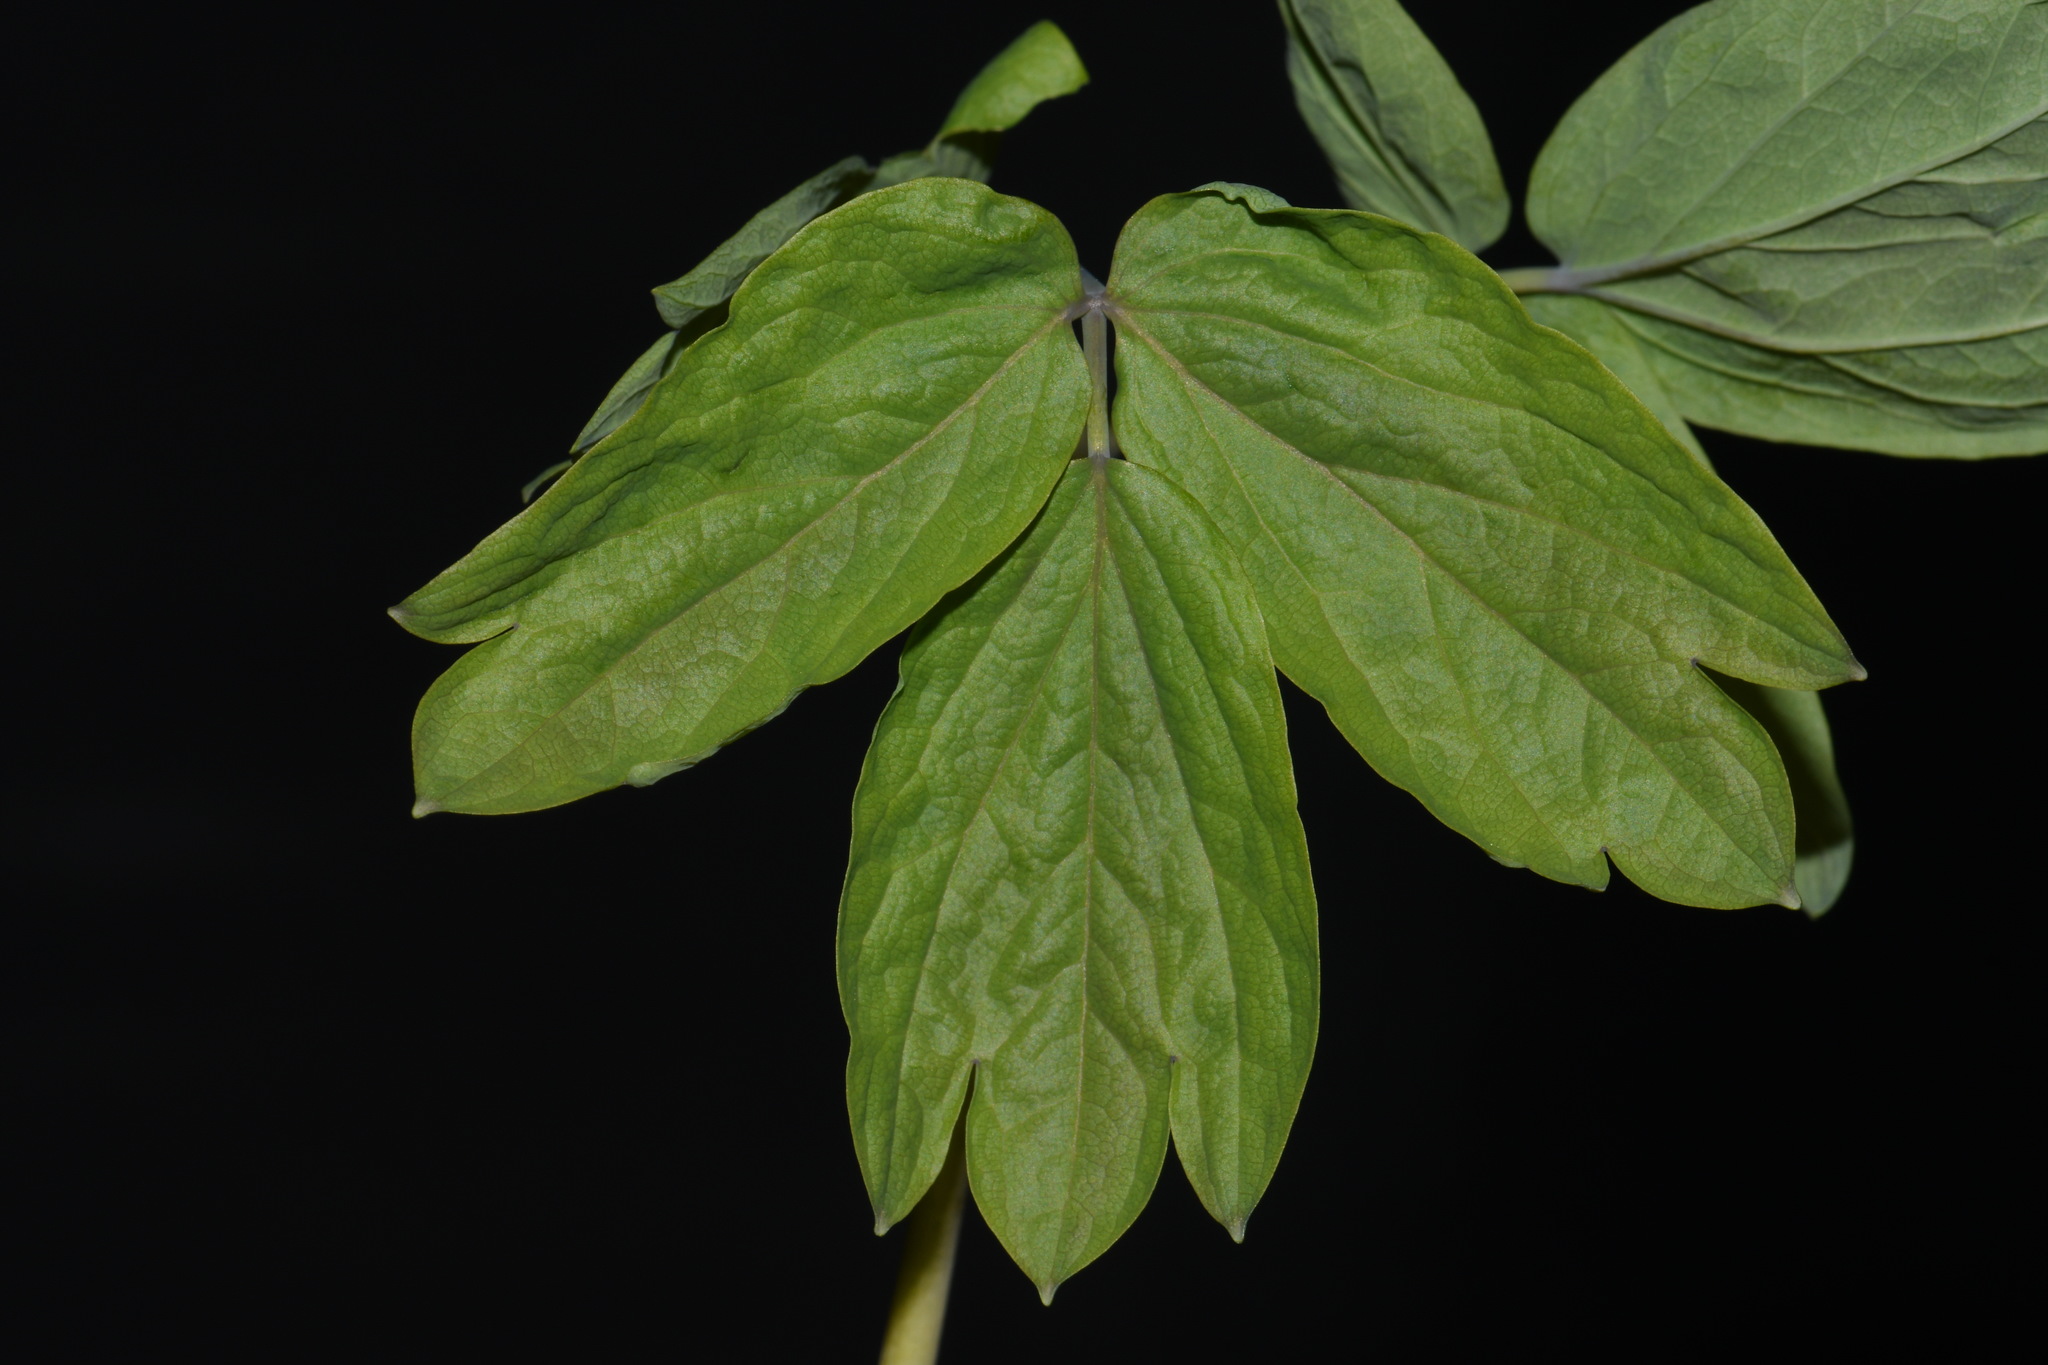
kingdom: Plantae
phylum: Tracheophyta
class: Magnoliopsida
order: Ranunculales
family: Berberidaceae
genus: Caulophyllum
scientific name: Caulophyllum giganteum
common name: Blue cohosh
